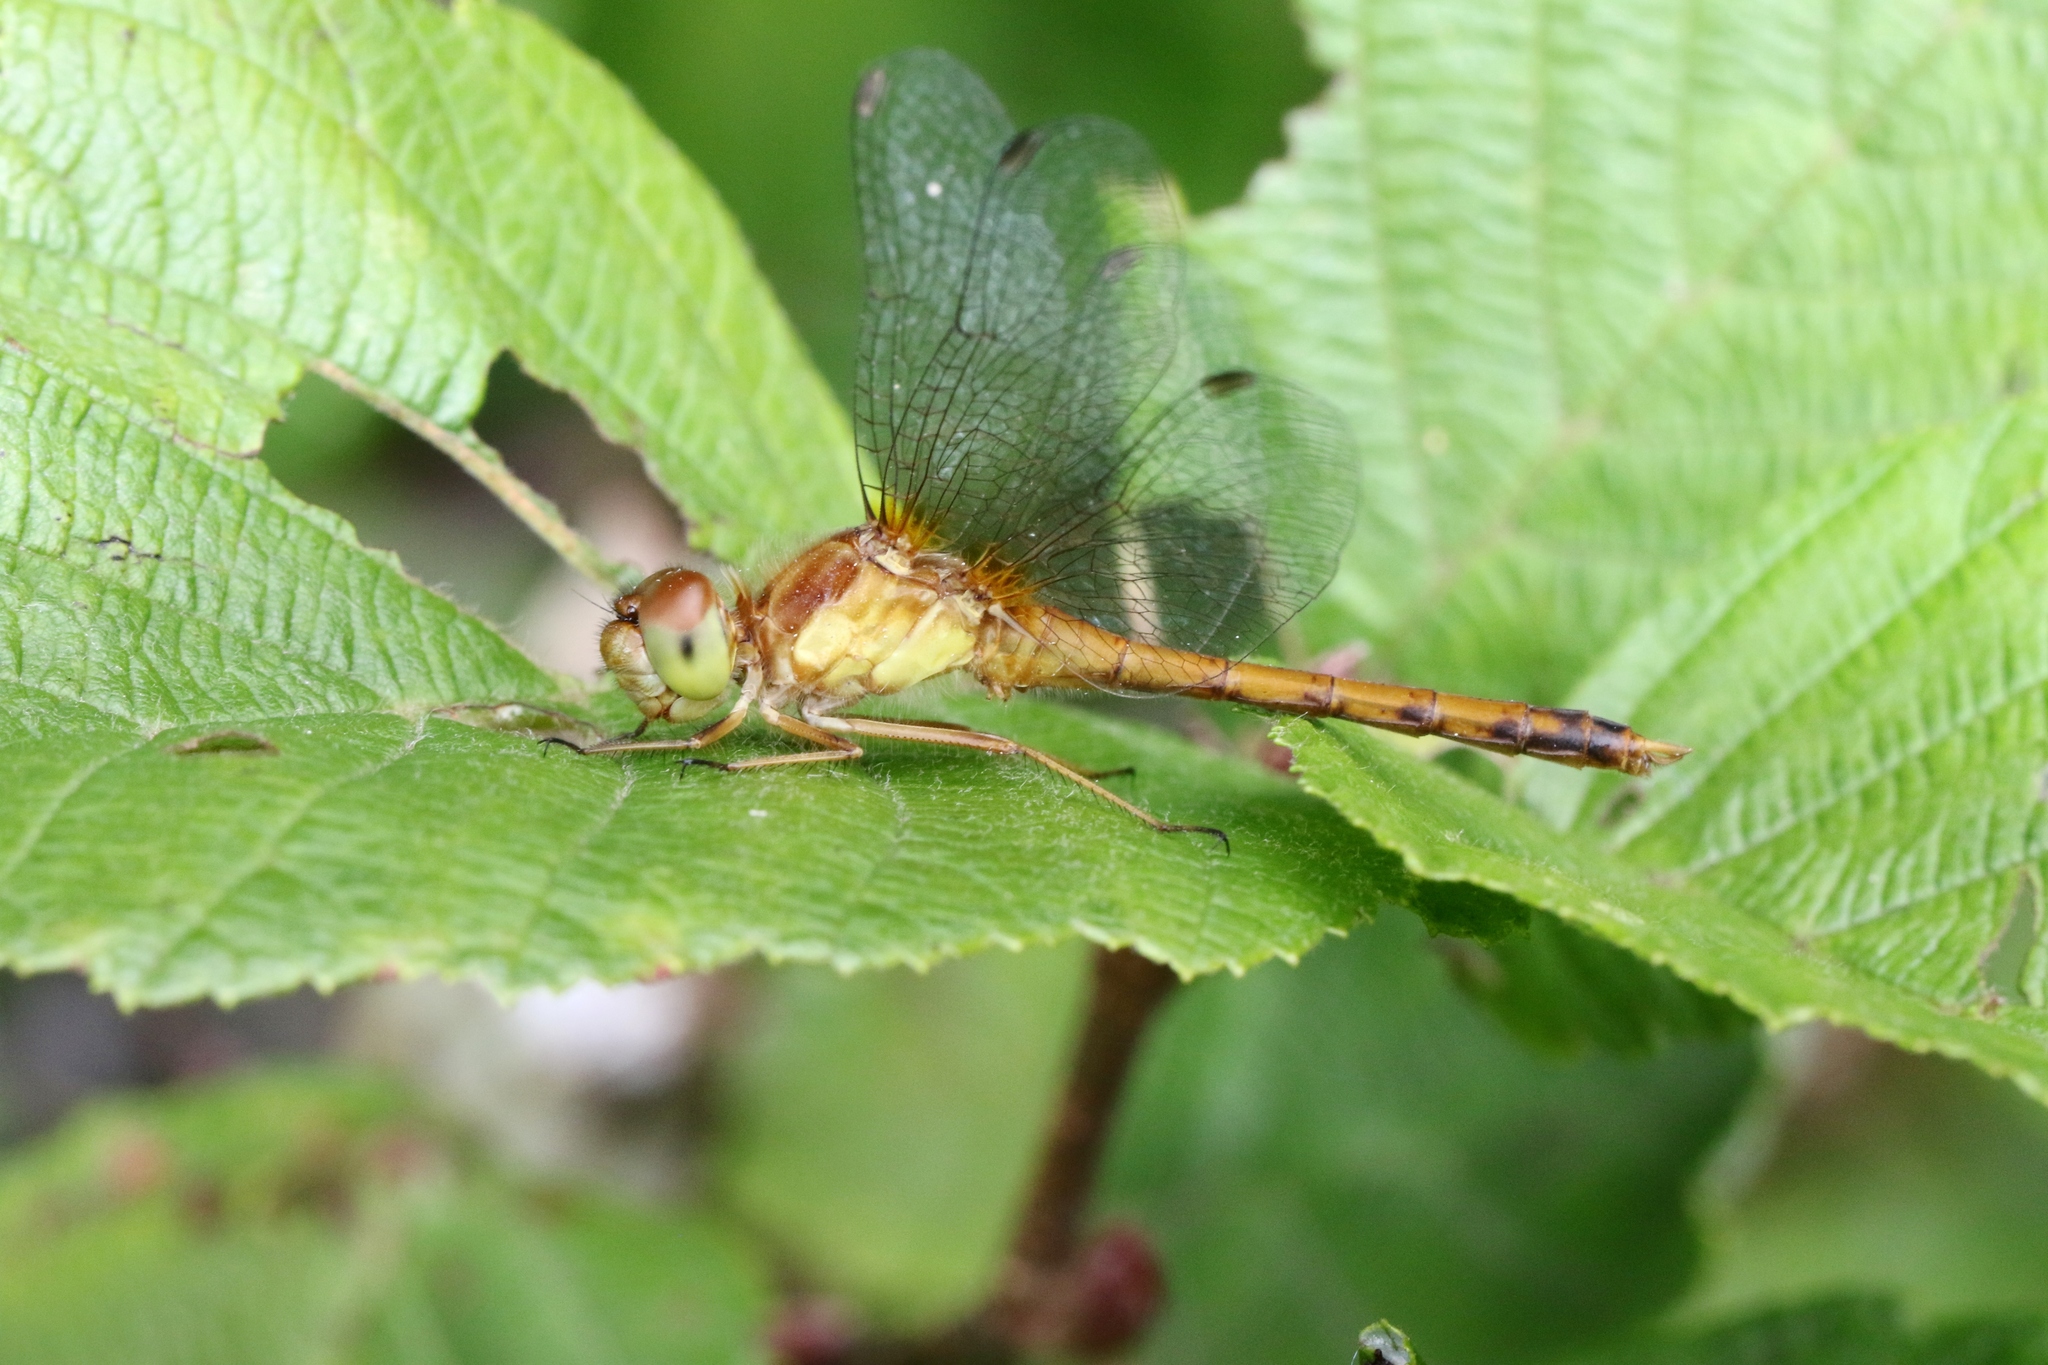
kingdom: Animalia
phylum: Arthropoda
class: Insecta
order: Odonata
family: Libellulidae
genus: Sympetrum
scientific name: Sympetrum vicinum
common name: Autumn meadowhawk
